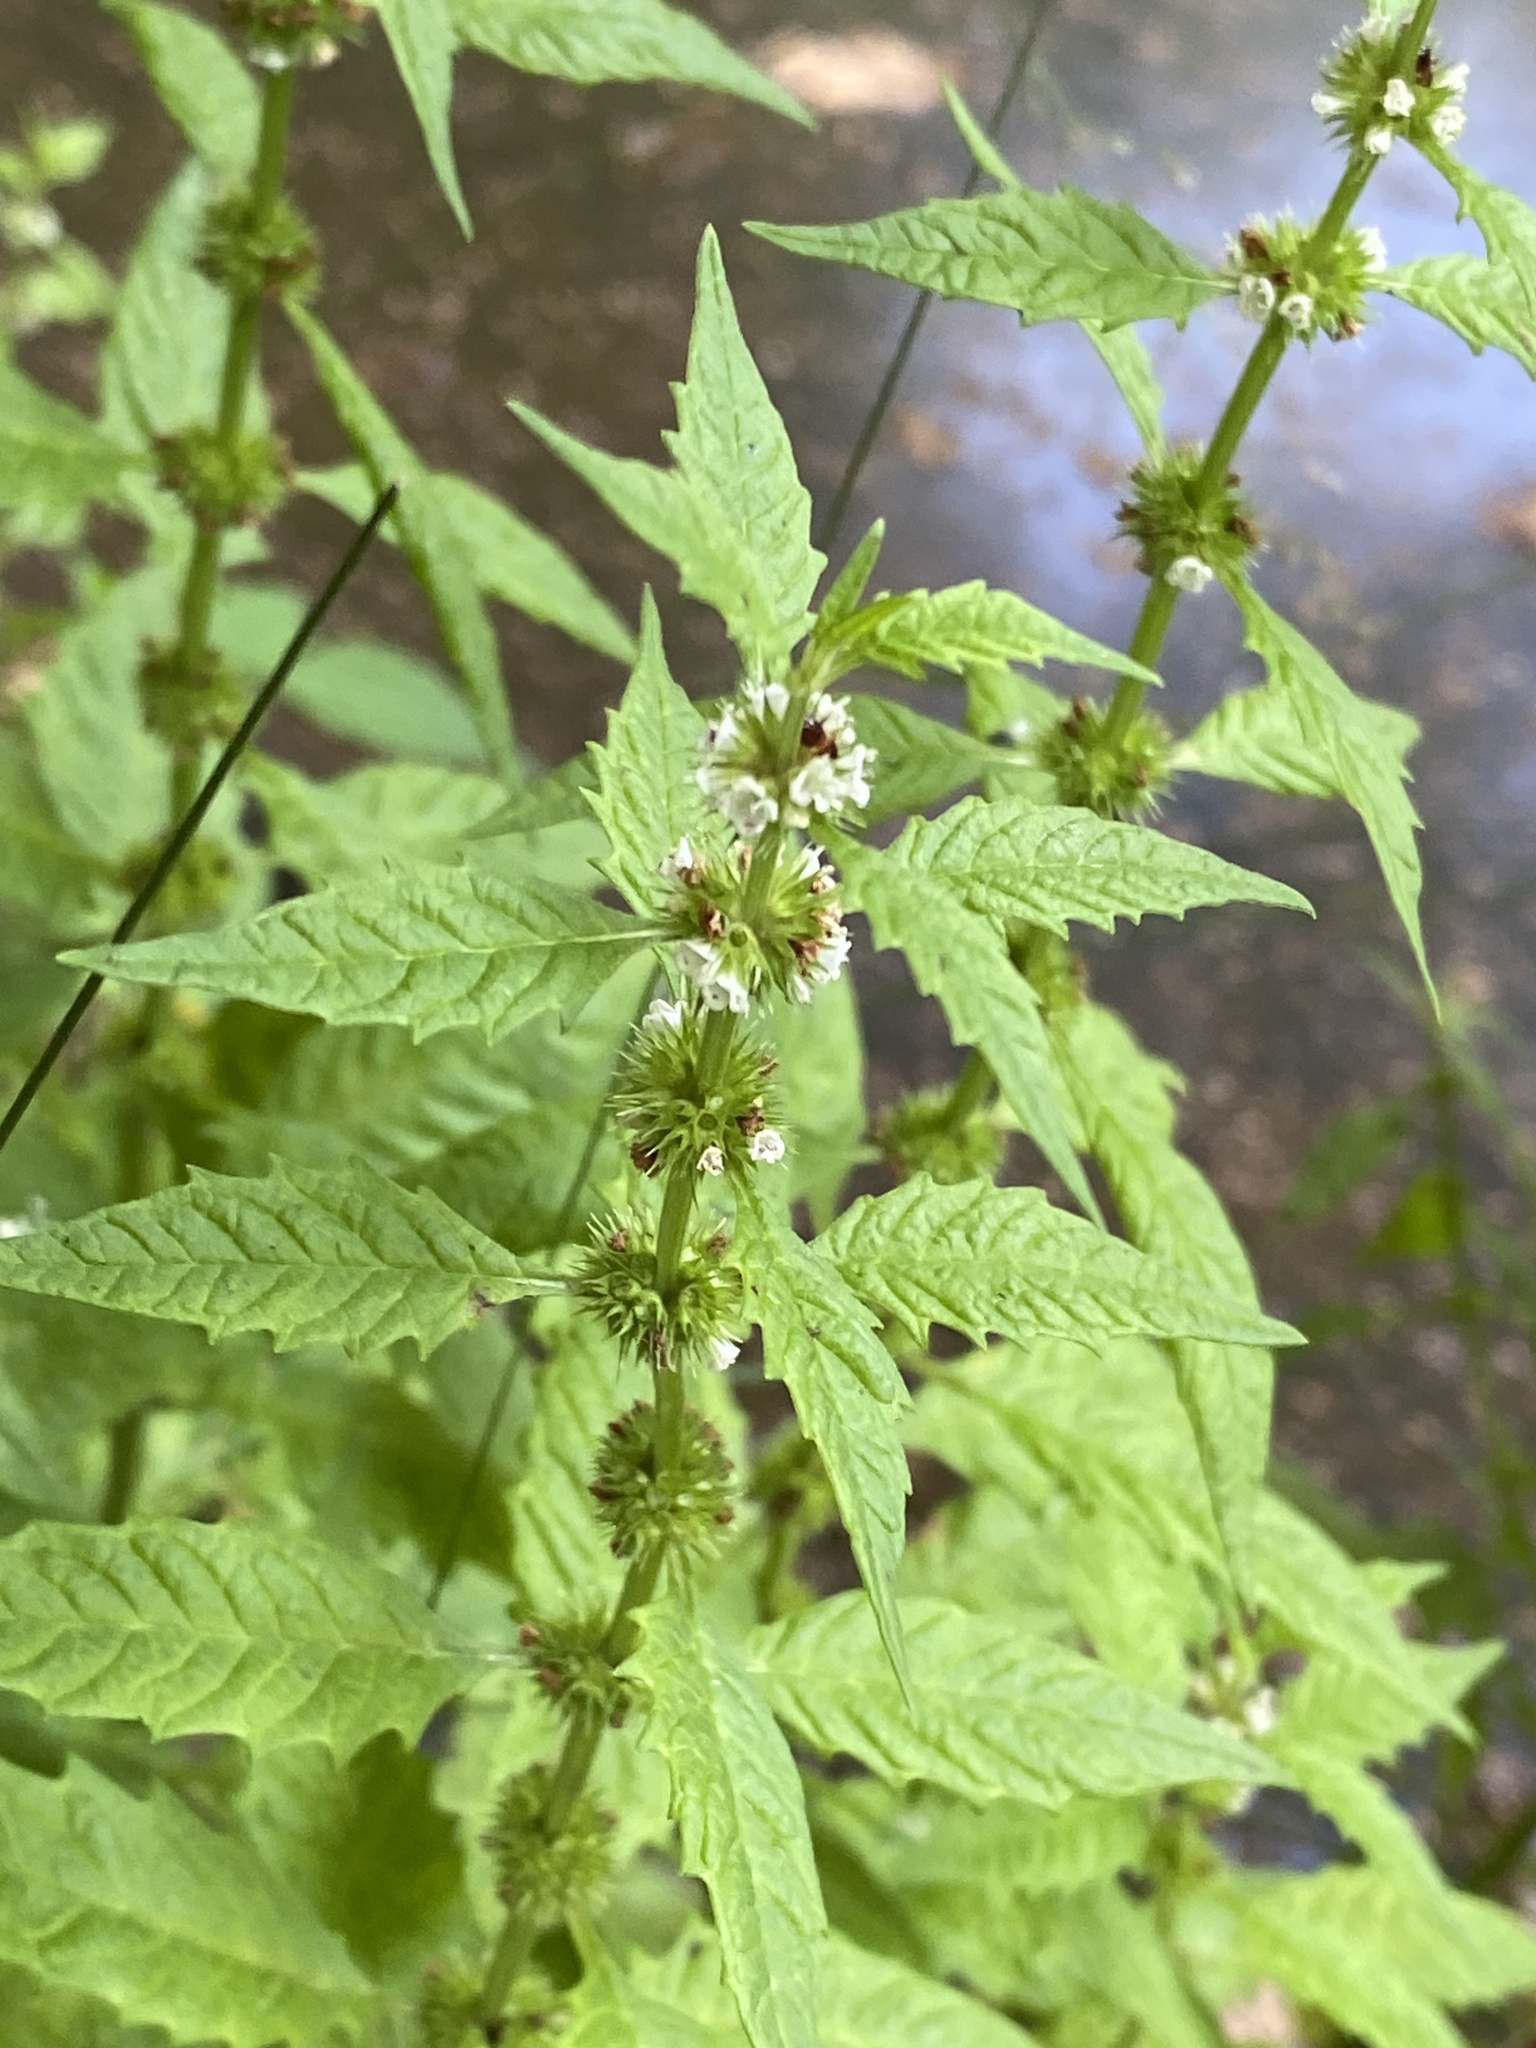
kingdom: Plantae
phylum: Tracheophyta
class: Magnoliopsida
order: Lamiales
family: Lamiaceae
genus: Lycopus
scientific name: Lycopus europaeus
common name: European bugleweed
